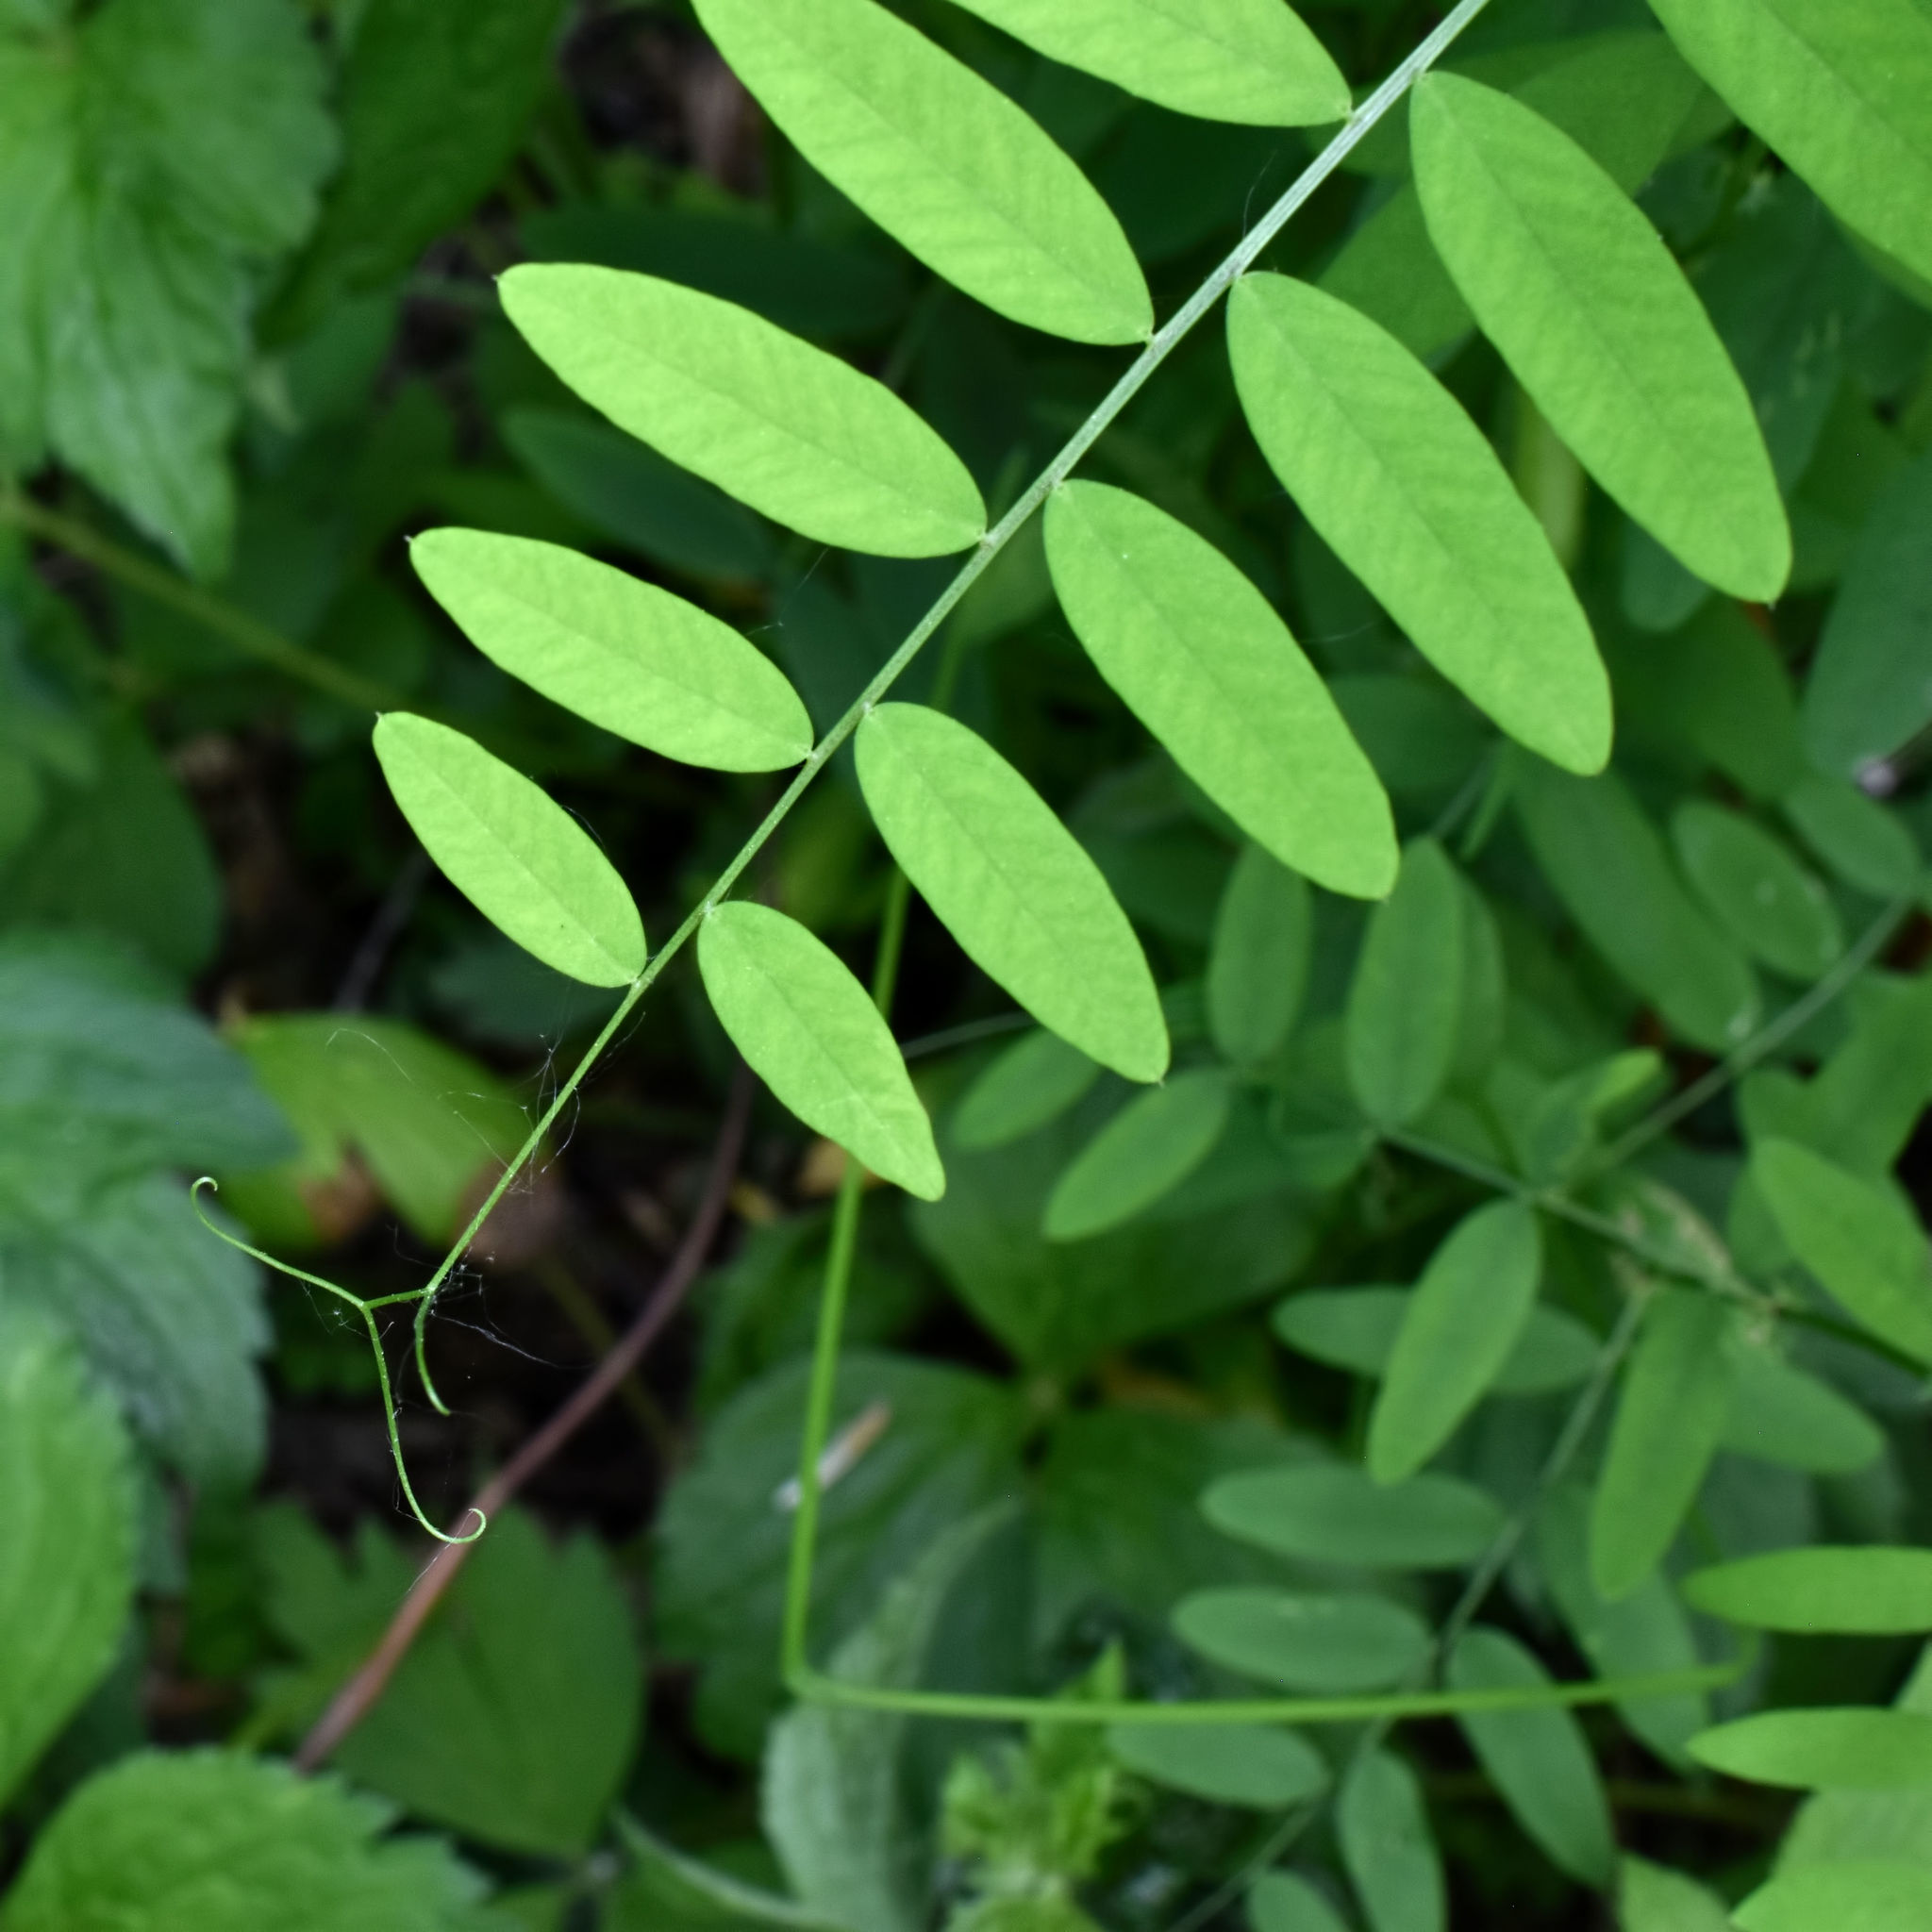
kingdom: Plantae
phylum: Tracheophyta
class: Magnoliopsida
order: Fabales
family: Fabaceae
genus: Vicia
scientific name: Vicia americana
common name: American vetch
